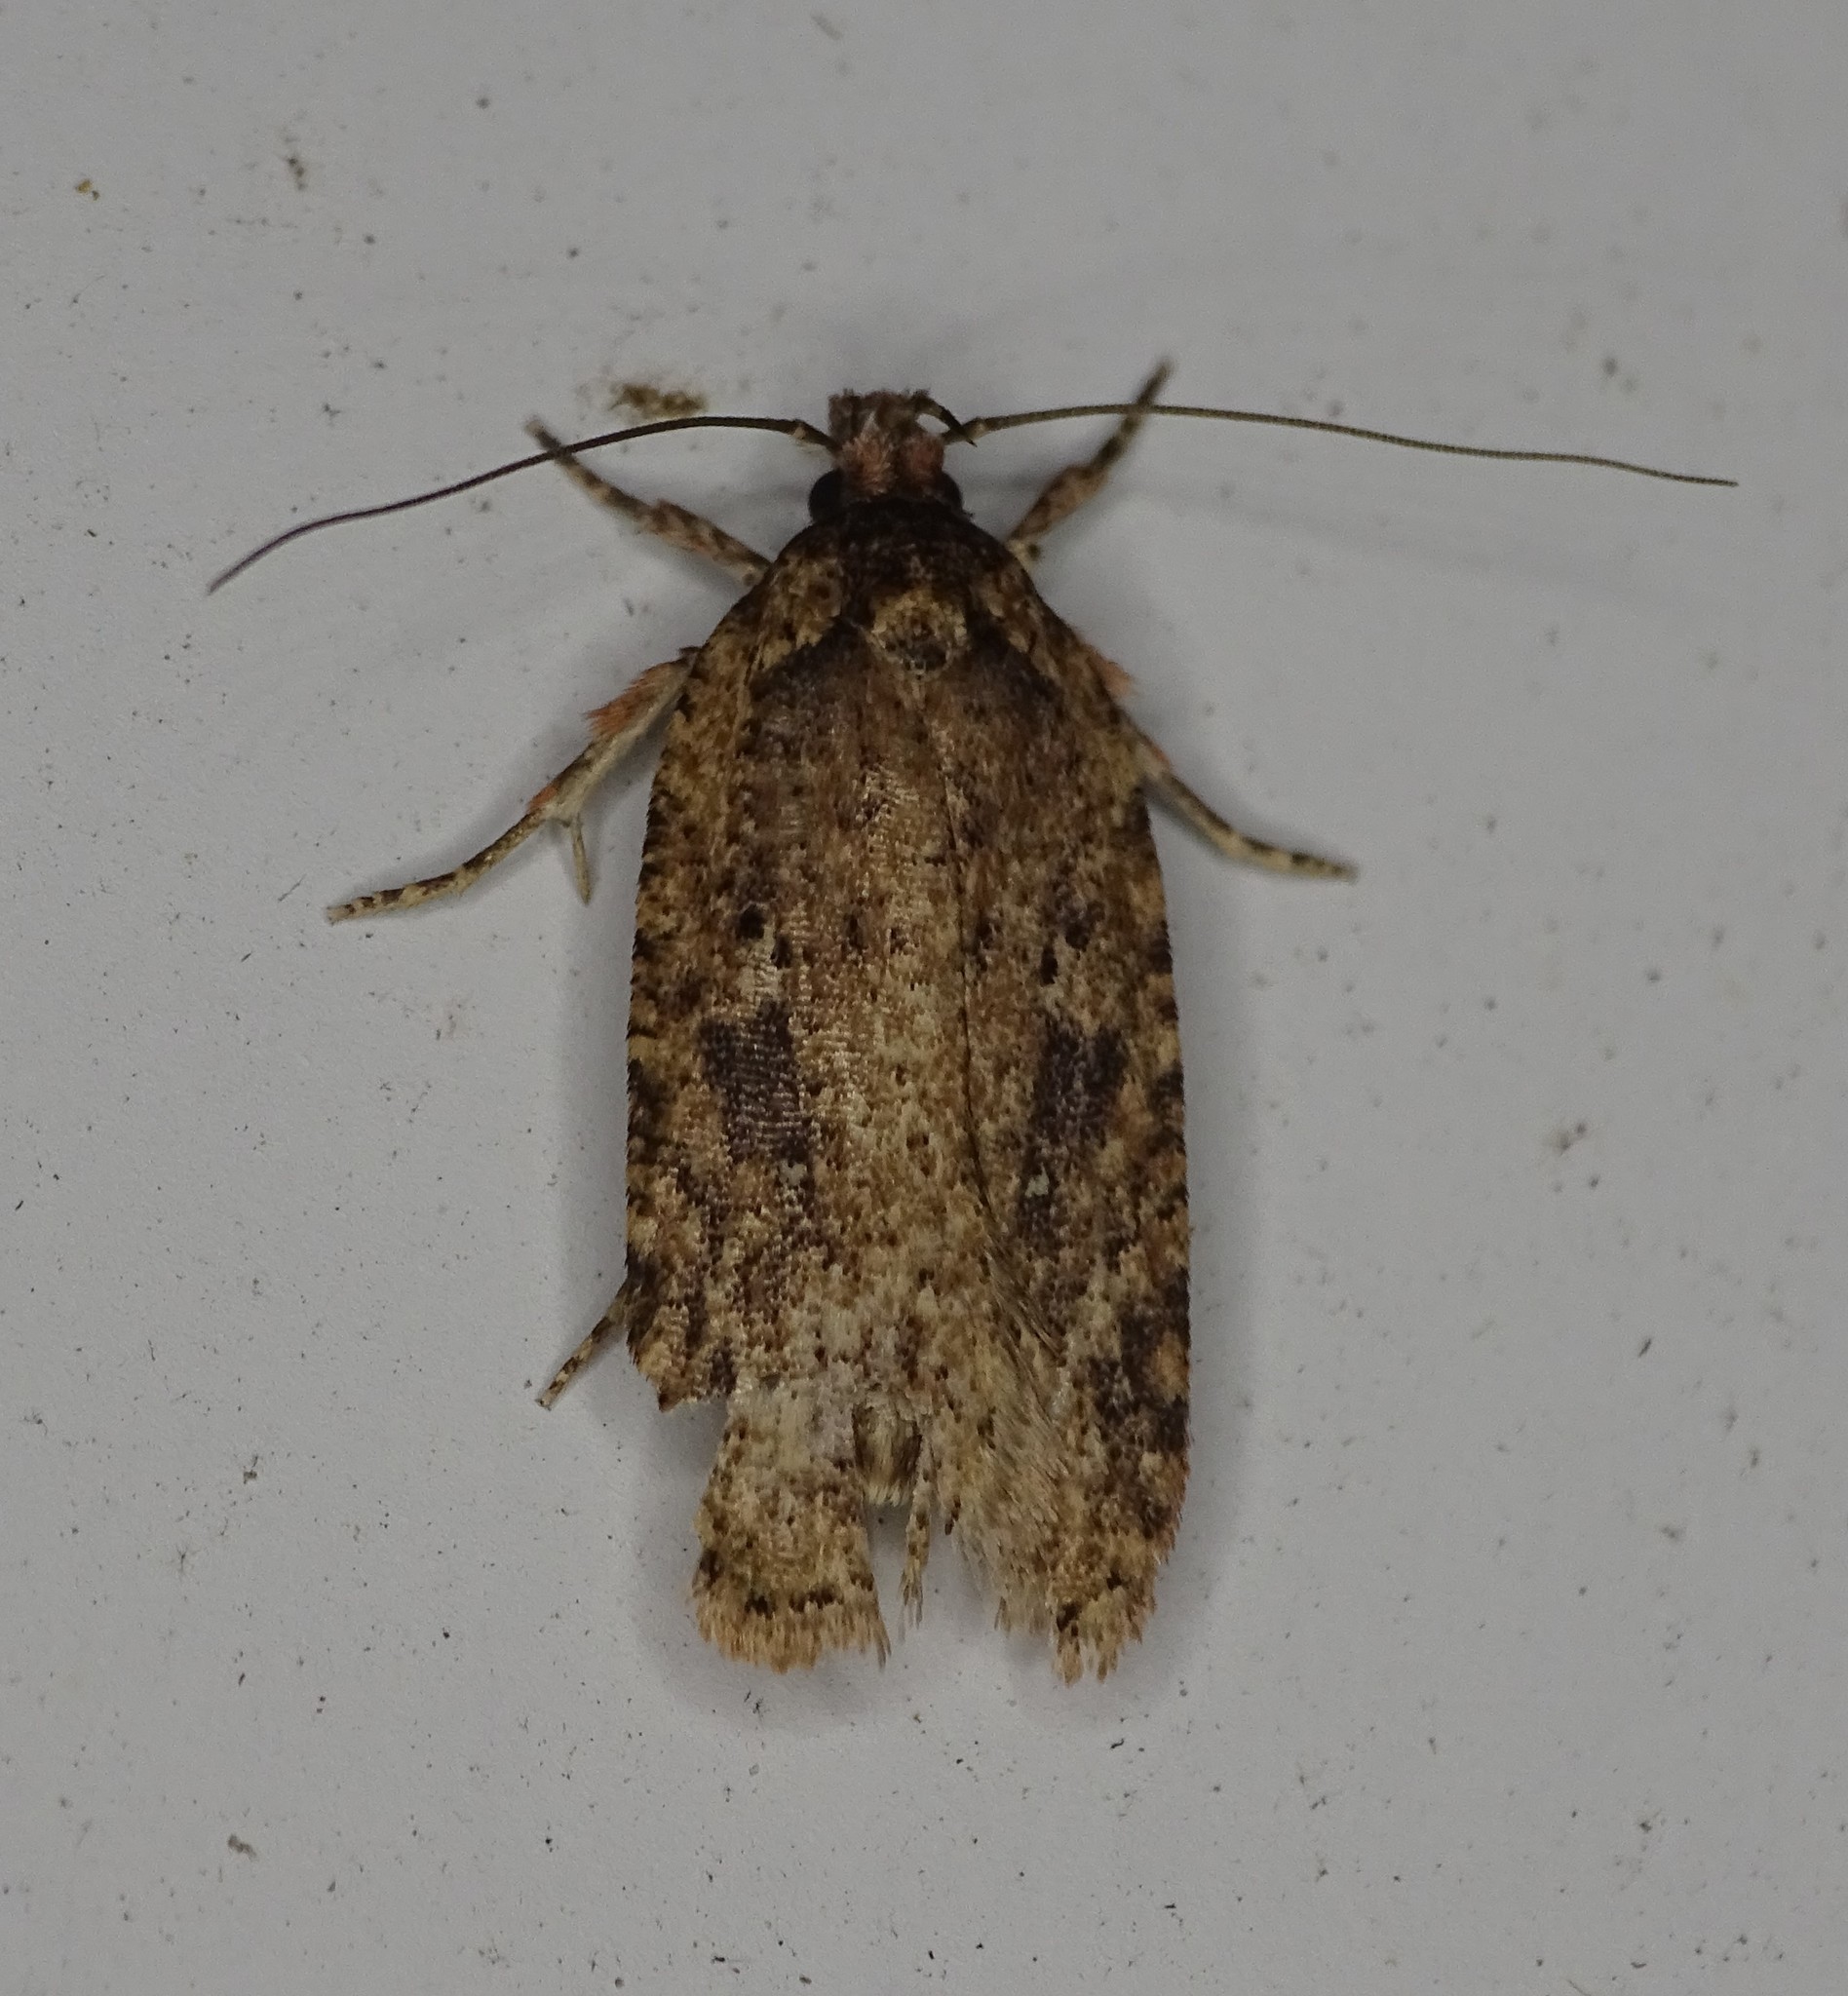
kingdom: Animalia
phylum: Arthropoda
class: Insecta
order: Lepidoptera
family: Depressariidae
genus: Agonopterix
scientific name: Agonopterix pulvipennella
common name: Goldenrod leafffolder
